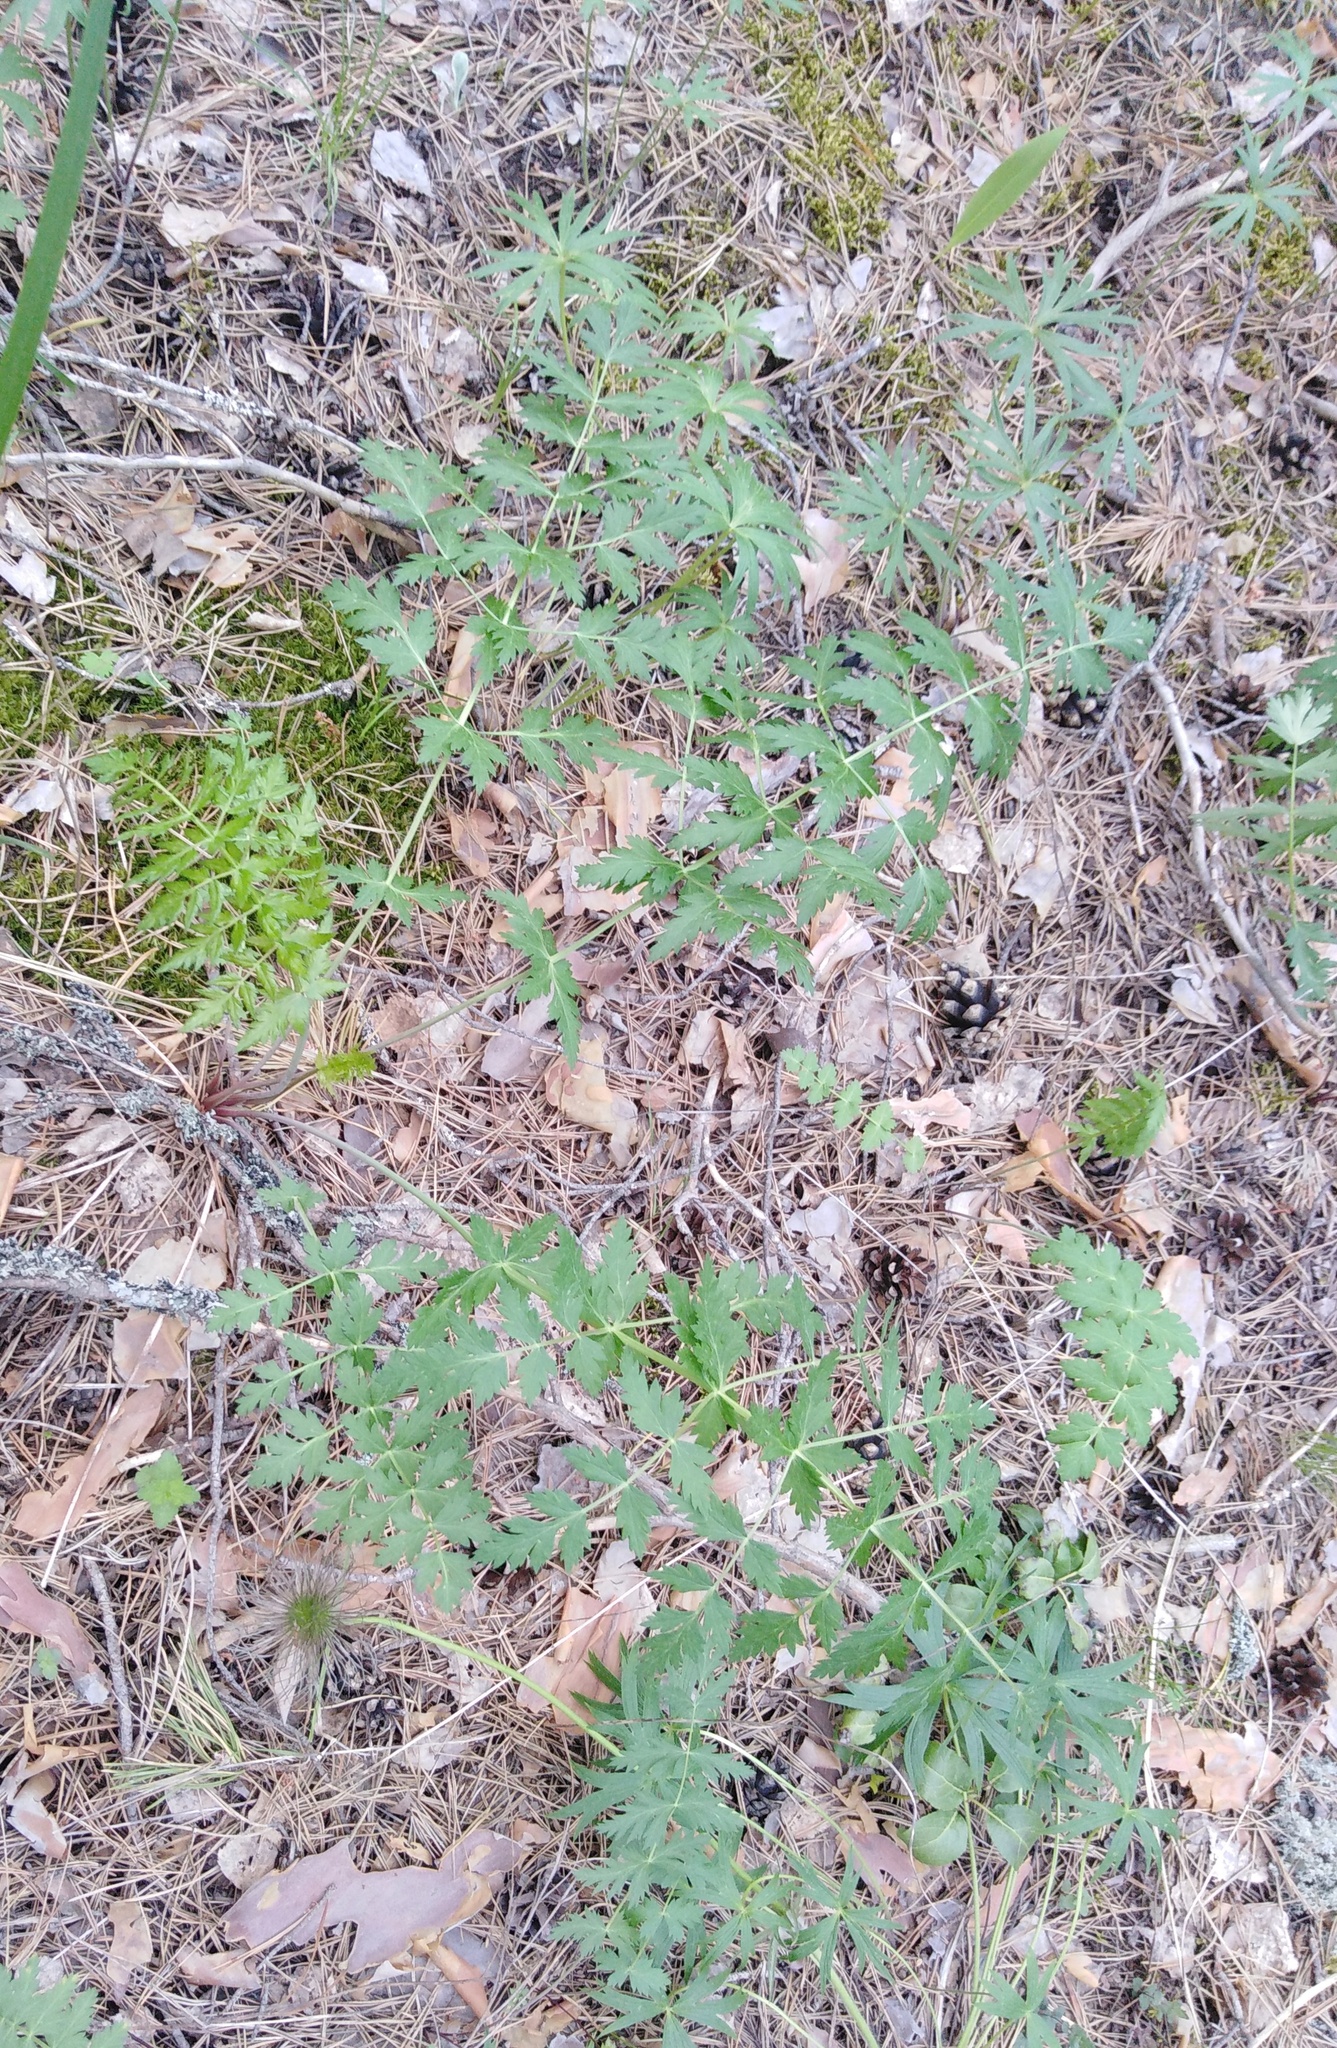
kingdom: Plantae
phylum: Tracheophyta
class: Magnoliopsida
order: Apiales
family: Apiaceae
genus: Seseli
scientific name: Seseli libanotis
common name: Mooncarrot
